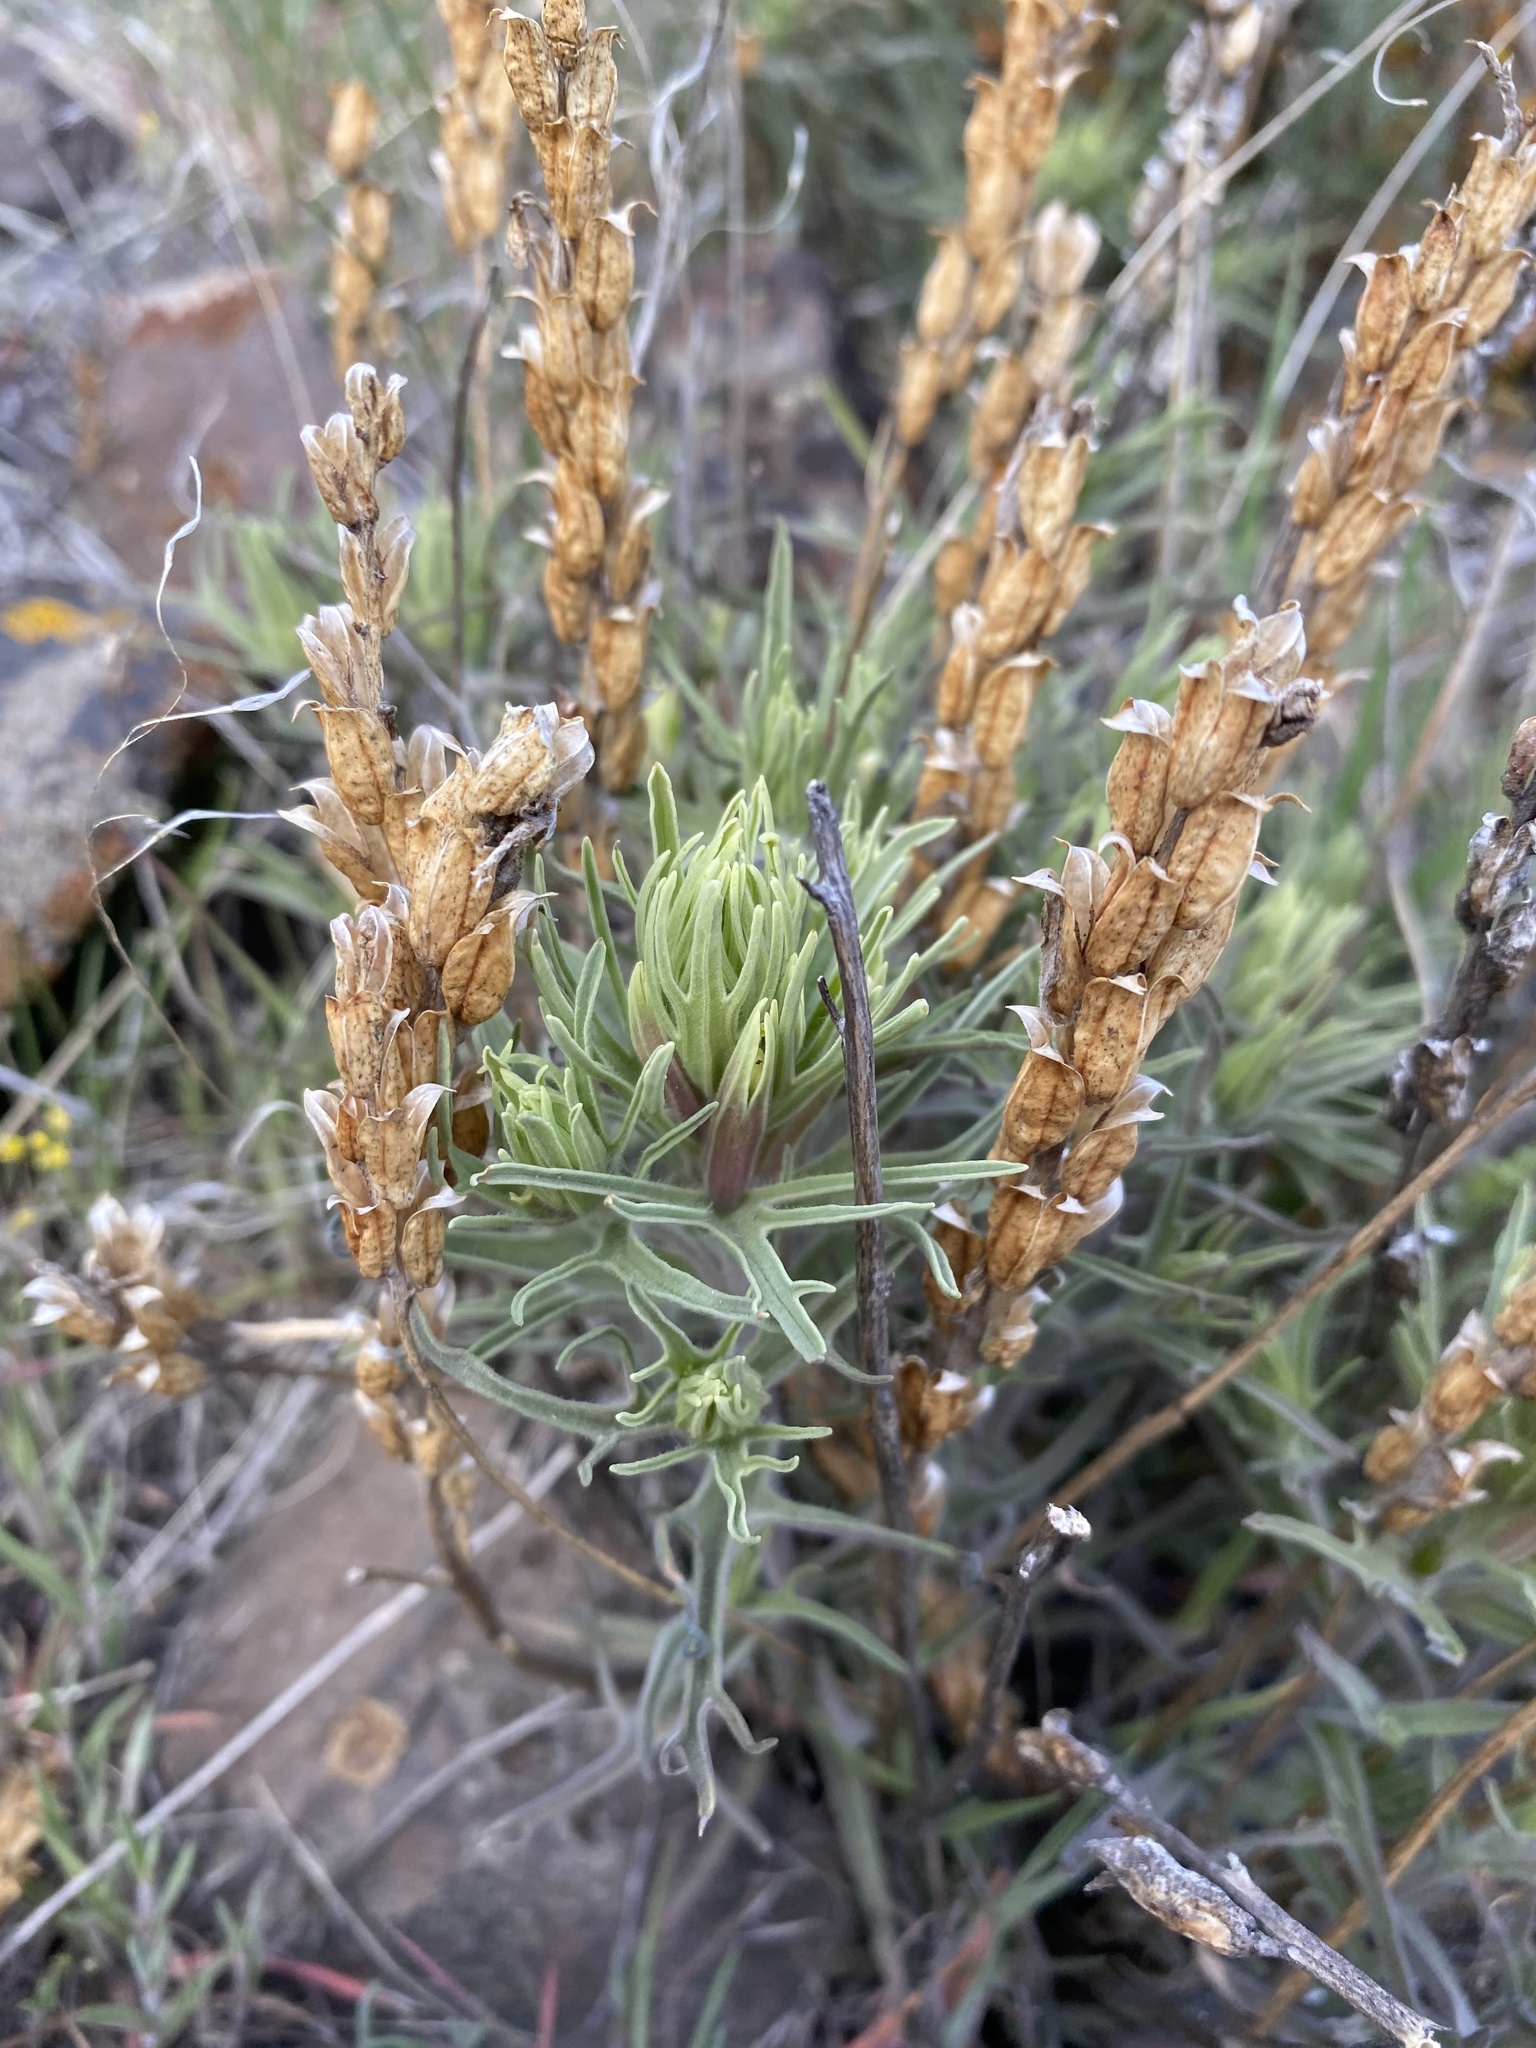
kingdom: Plantae
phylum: Tracheophyta
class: Magnoliopsida
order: Lamiales
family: Orobanchaceae
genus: Castilleja
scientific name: Castilleja thompsonii
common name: Thompson's paintbrush
